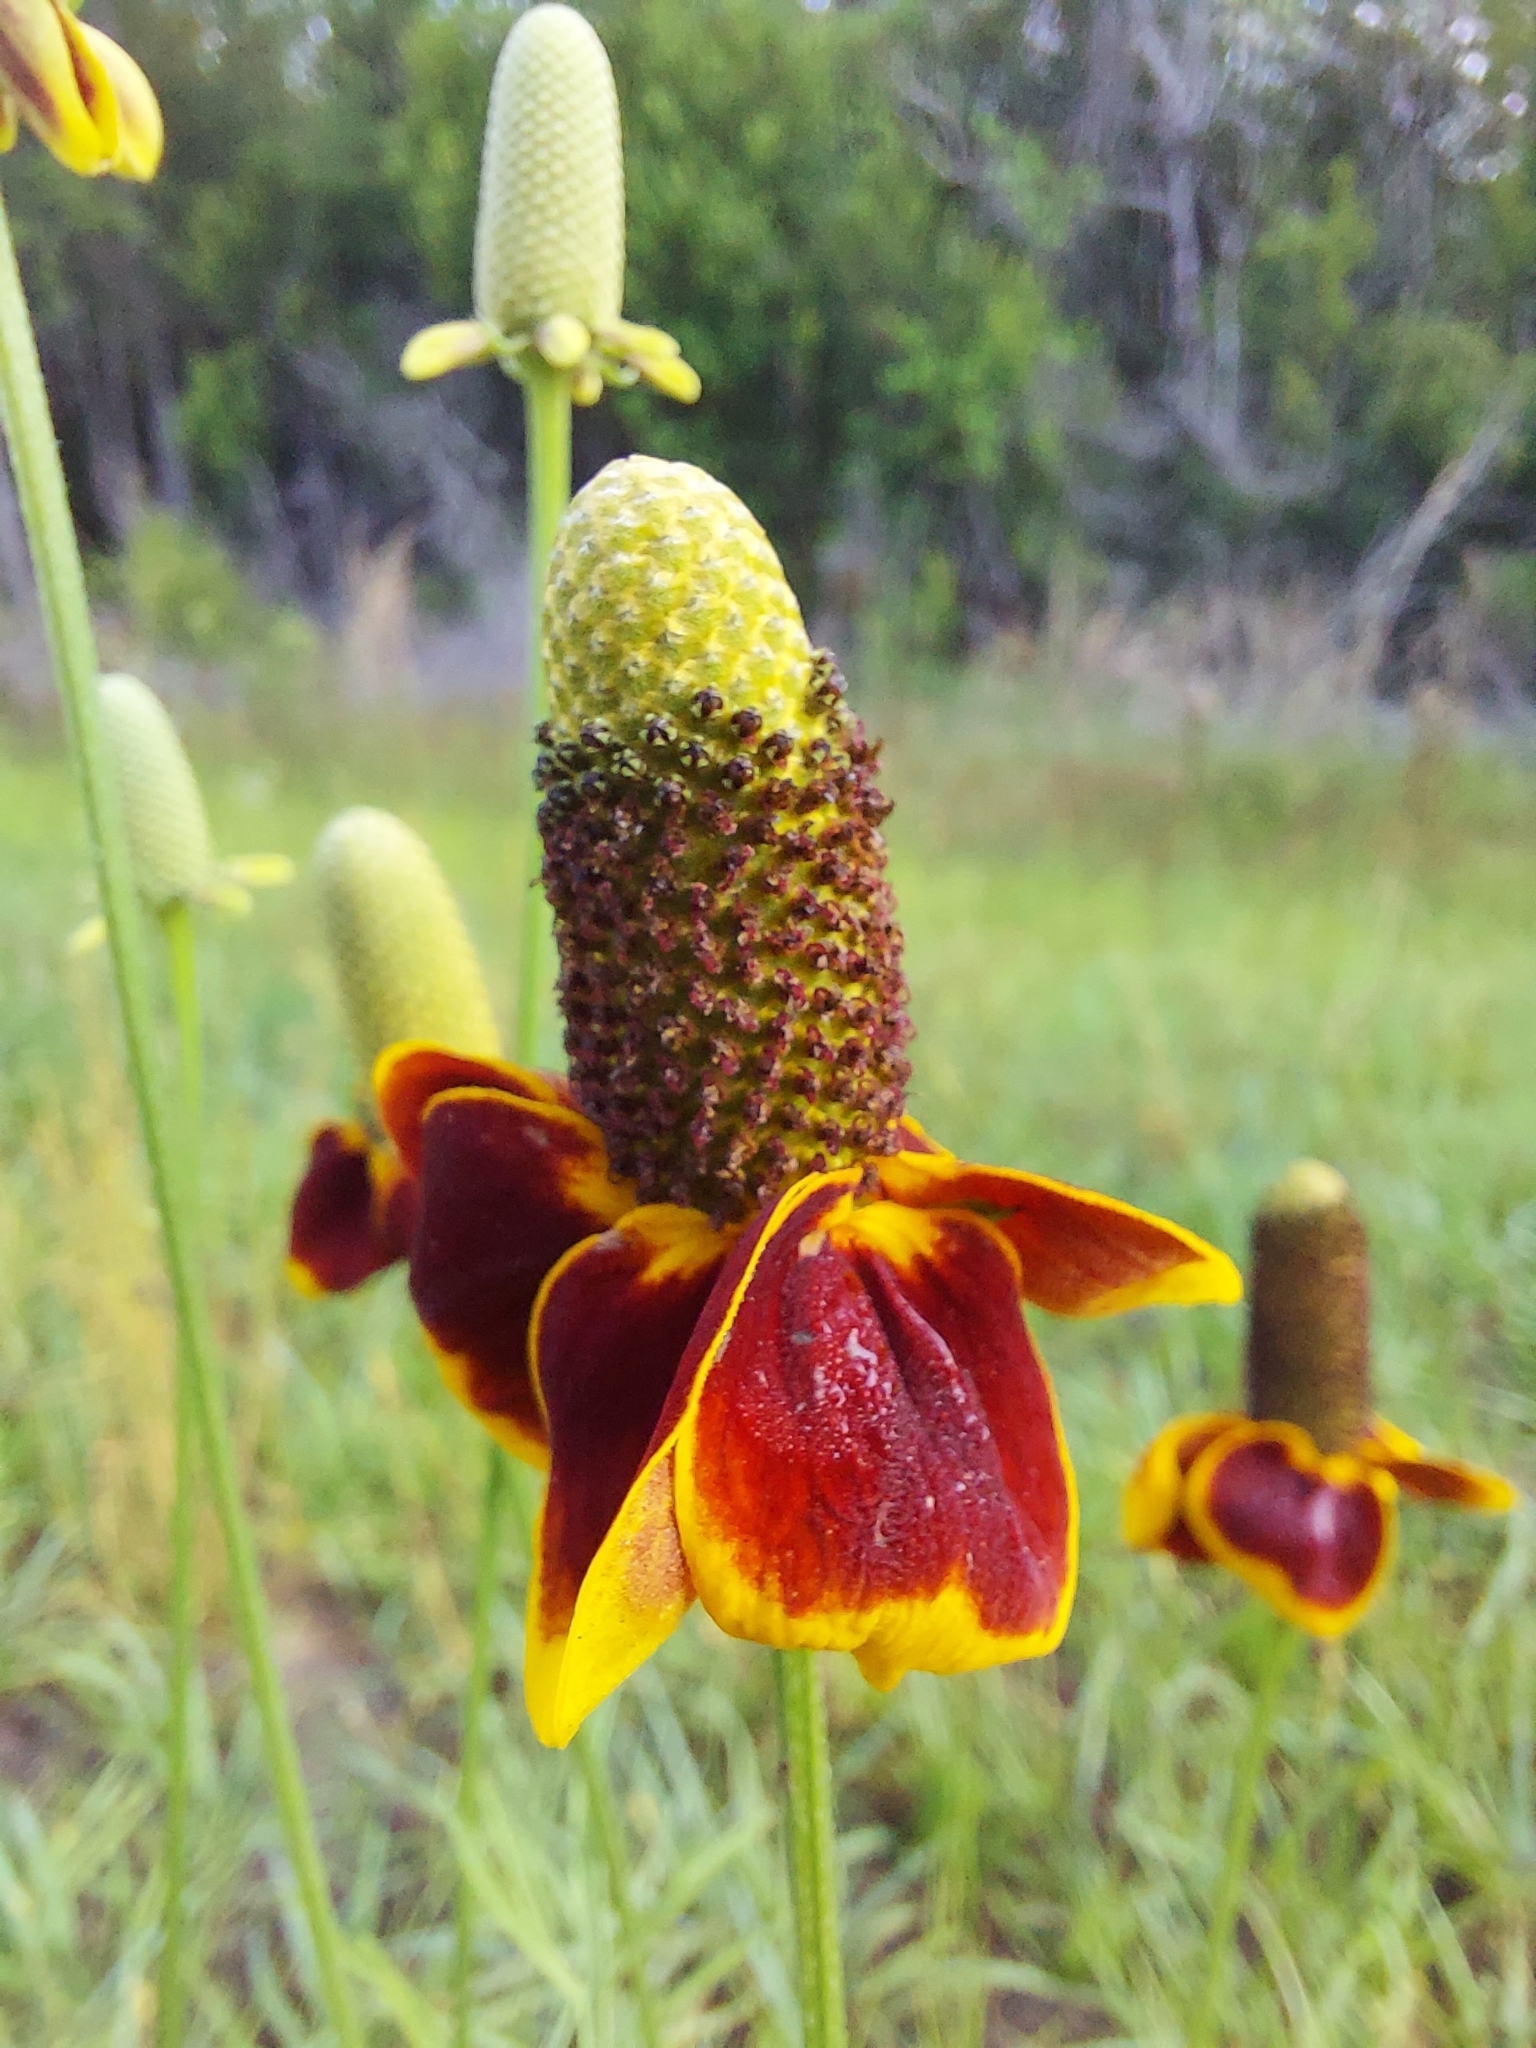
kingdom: Plantae
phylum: Tracheophyta
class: Magnoliopsida
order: Asterales
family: Asteraceae
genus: Ratibida
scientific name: Ratibida columnifera
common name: Prairie coneflower
